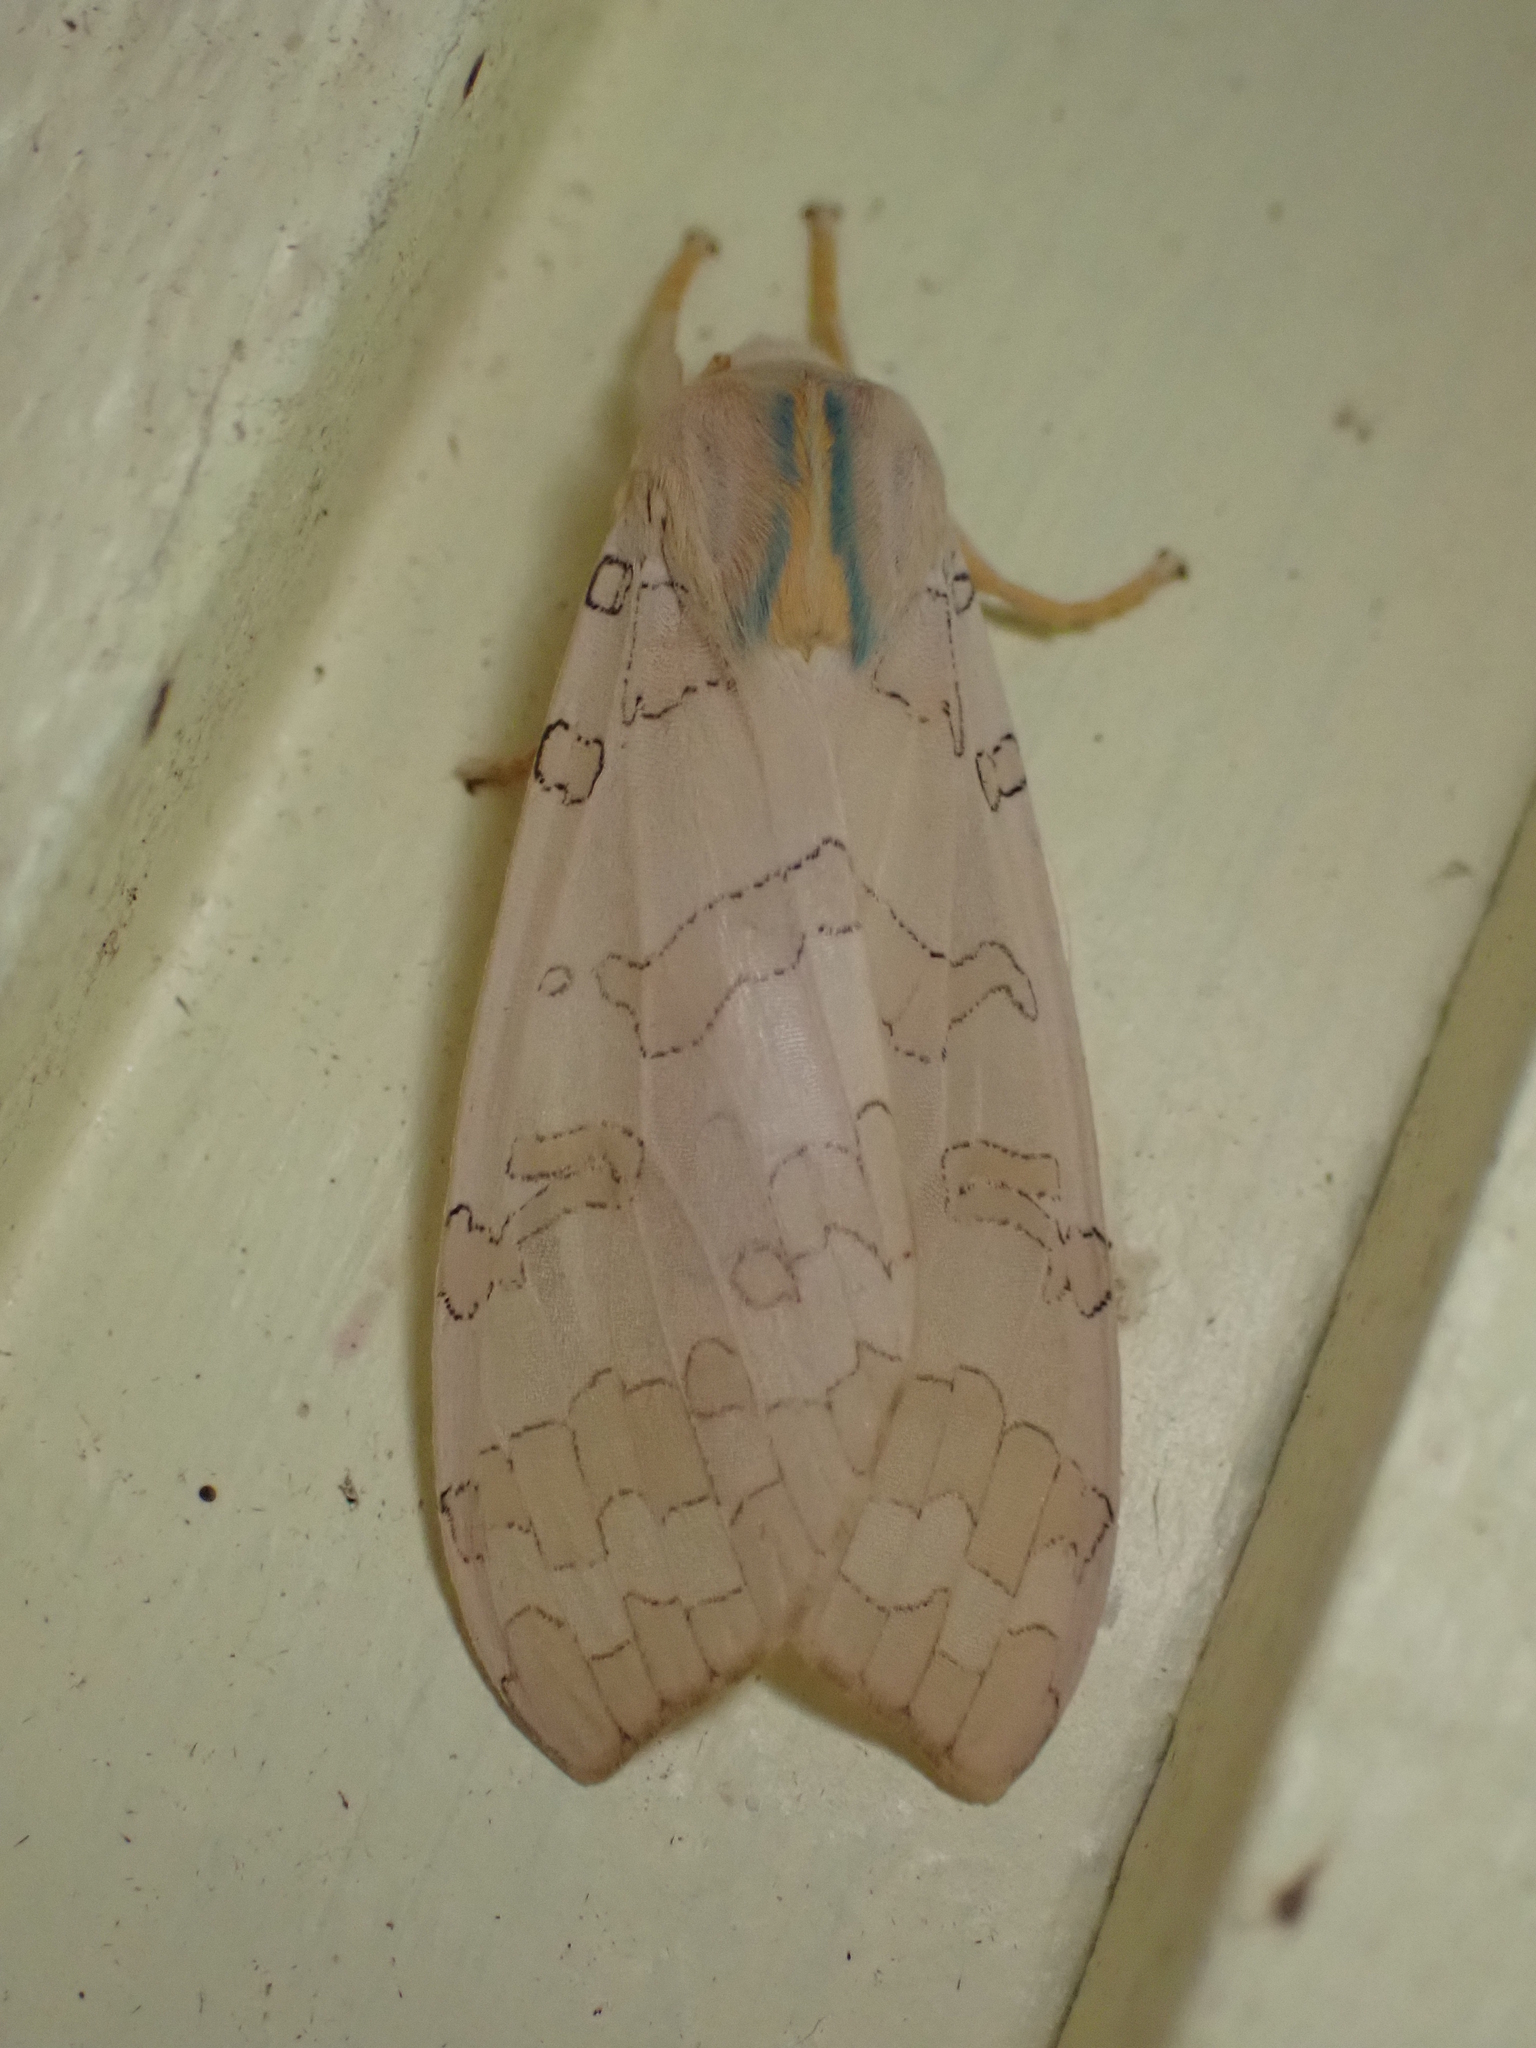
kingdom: Animalia
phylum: Arthropoda
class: Insecta
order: Lepidoptera
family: Erebidae
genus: Halysidota
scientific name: Halysidota tessellaris
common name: Banded tussock moth
